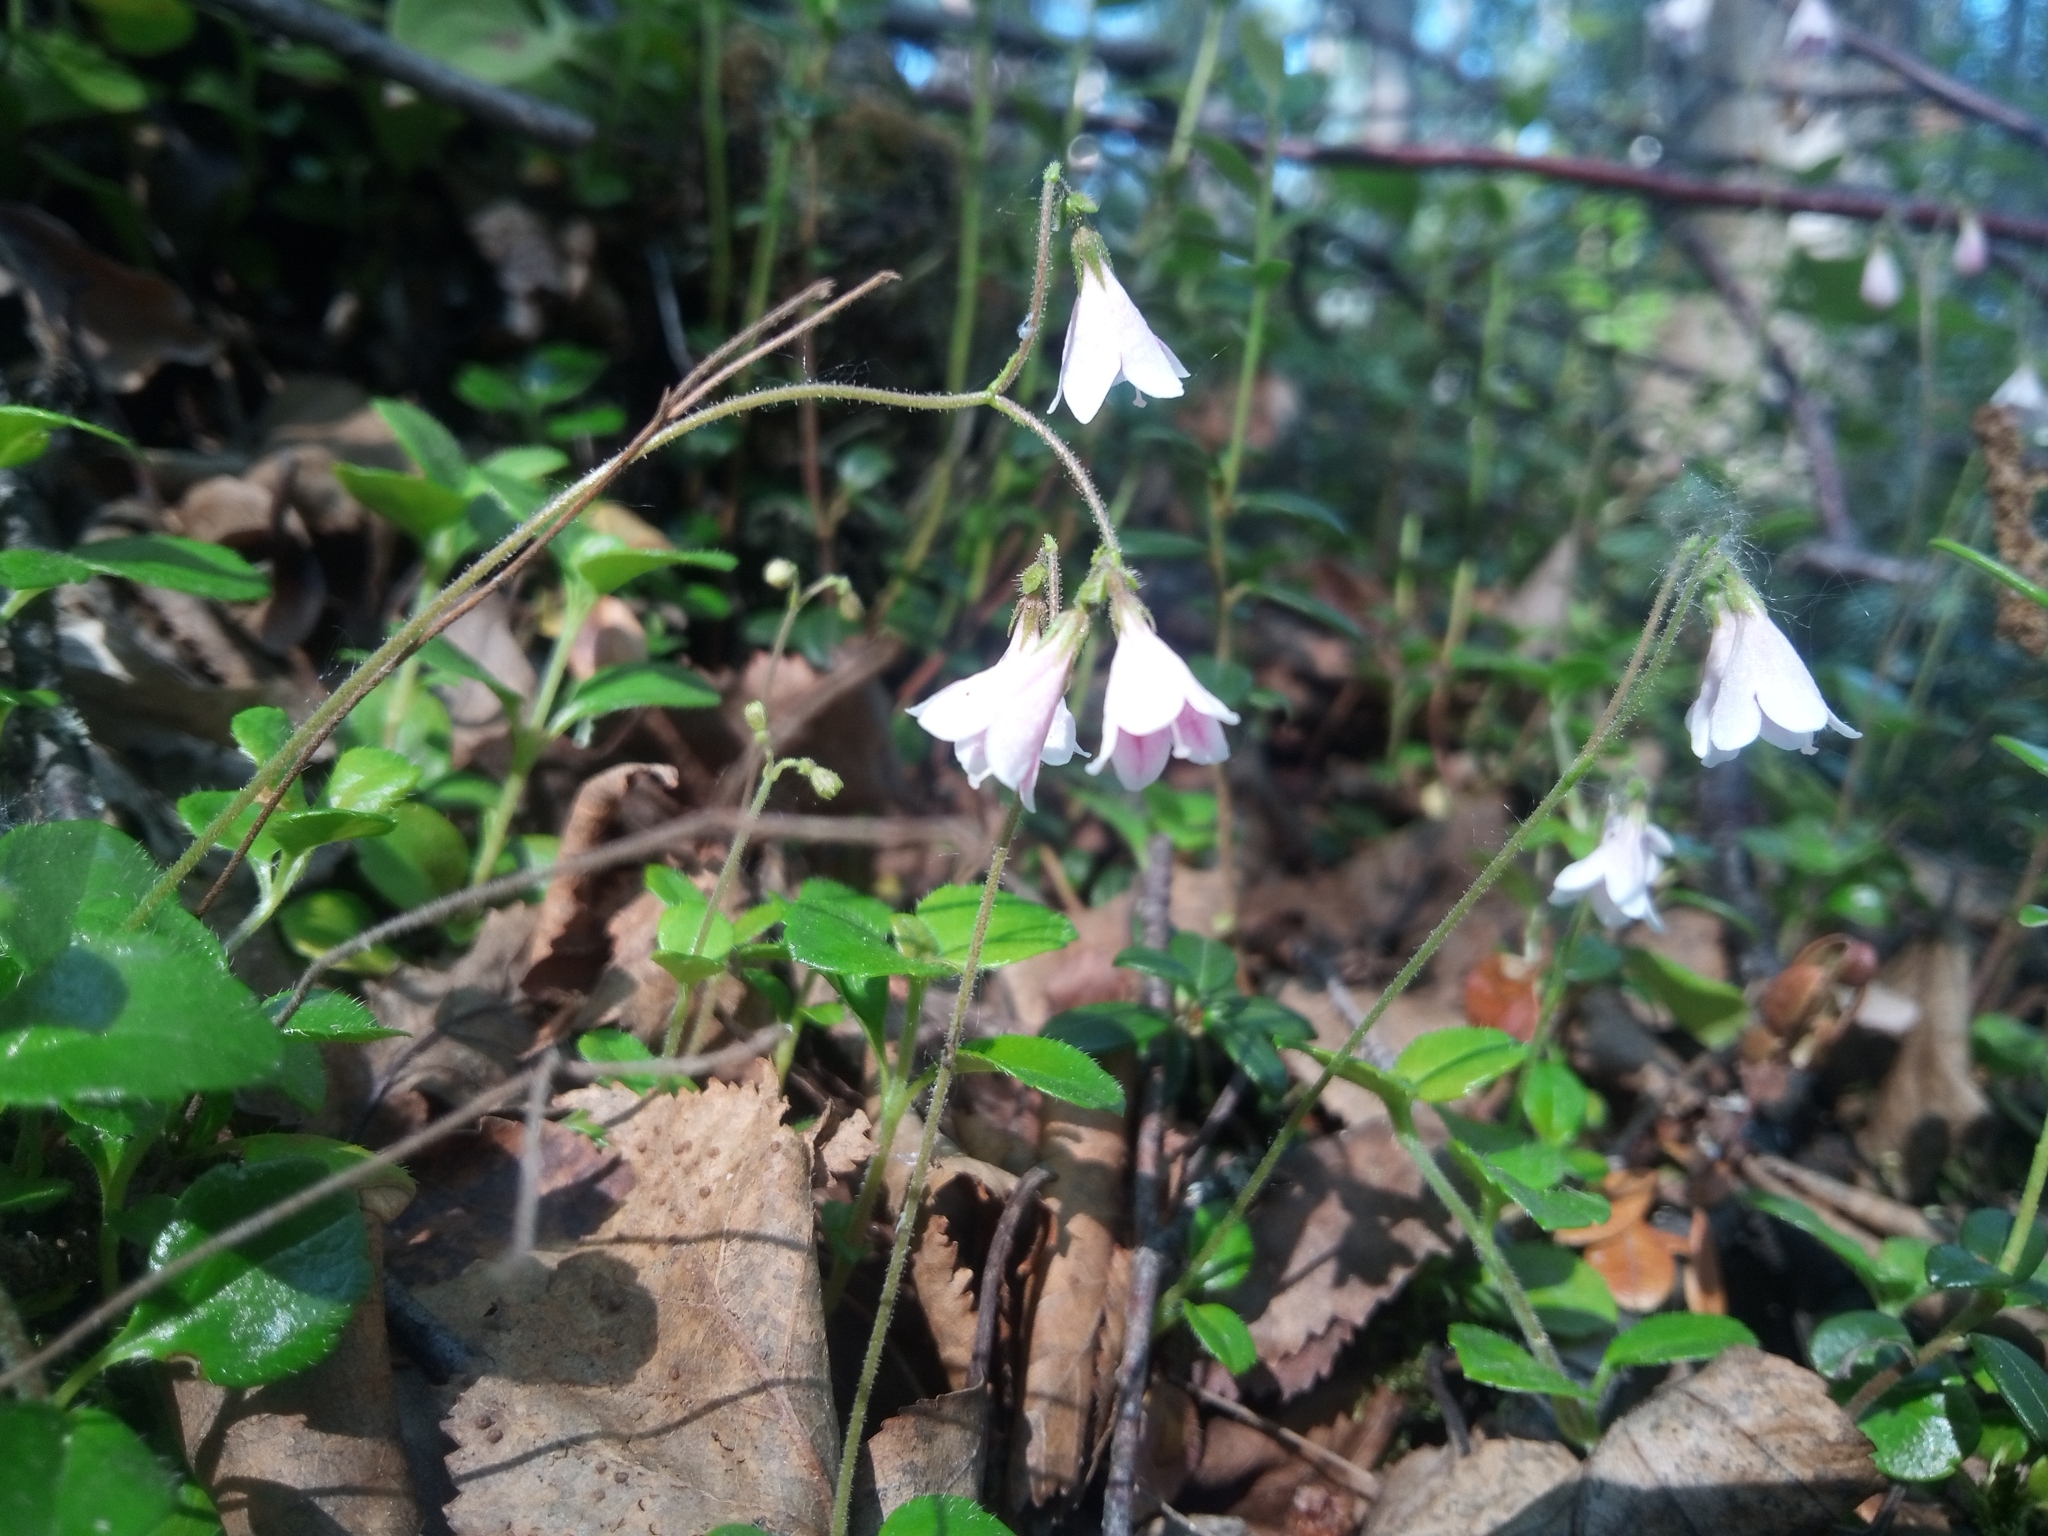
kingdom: Plantae
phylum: Tracheophyta
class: Magnoliopsida
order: Dipsacales
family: Caprifoliaceae
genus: Linnaea
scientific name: Linnaea borealis
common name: Twinflower
